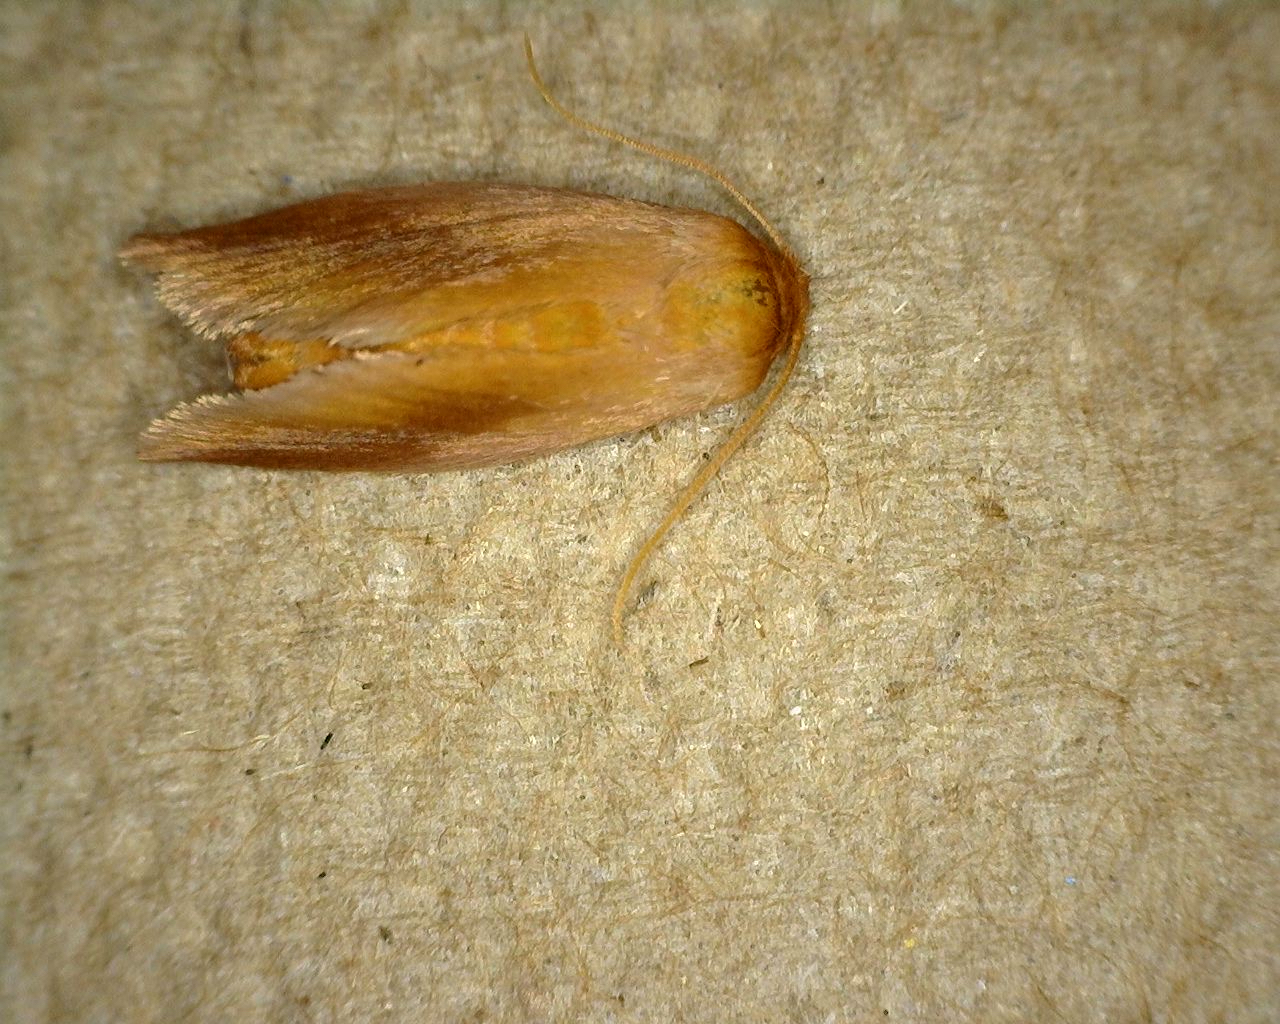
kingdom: Animalia
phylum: Arthropoda
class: Insecta
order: Lepidoptera
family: Limacodidae
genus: Tortricidia
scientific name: Tortricidia testacea
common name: Early button slug moth
